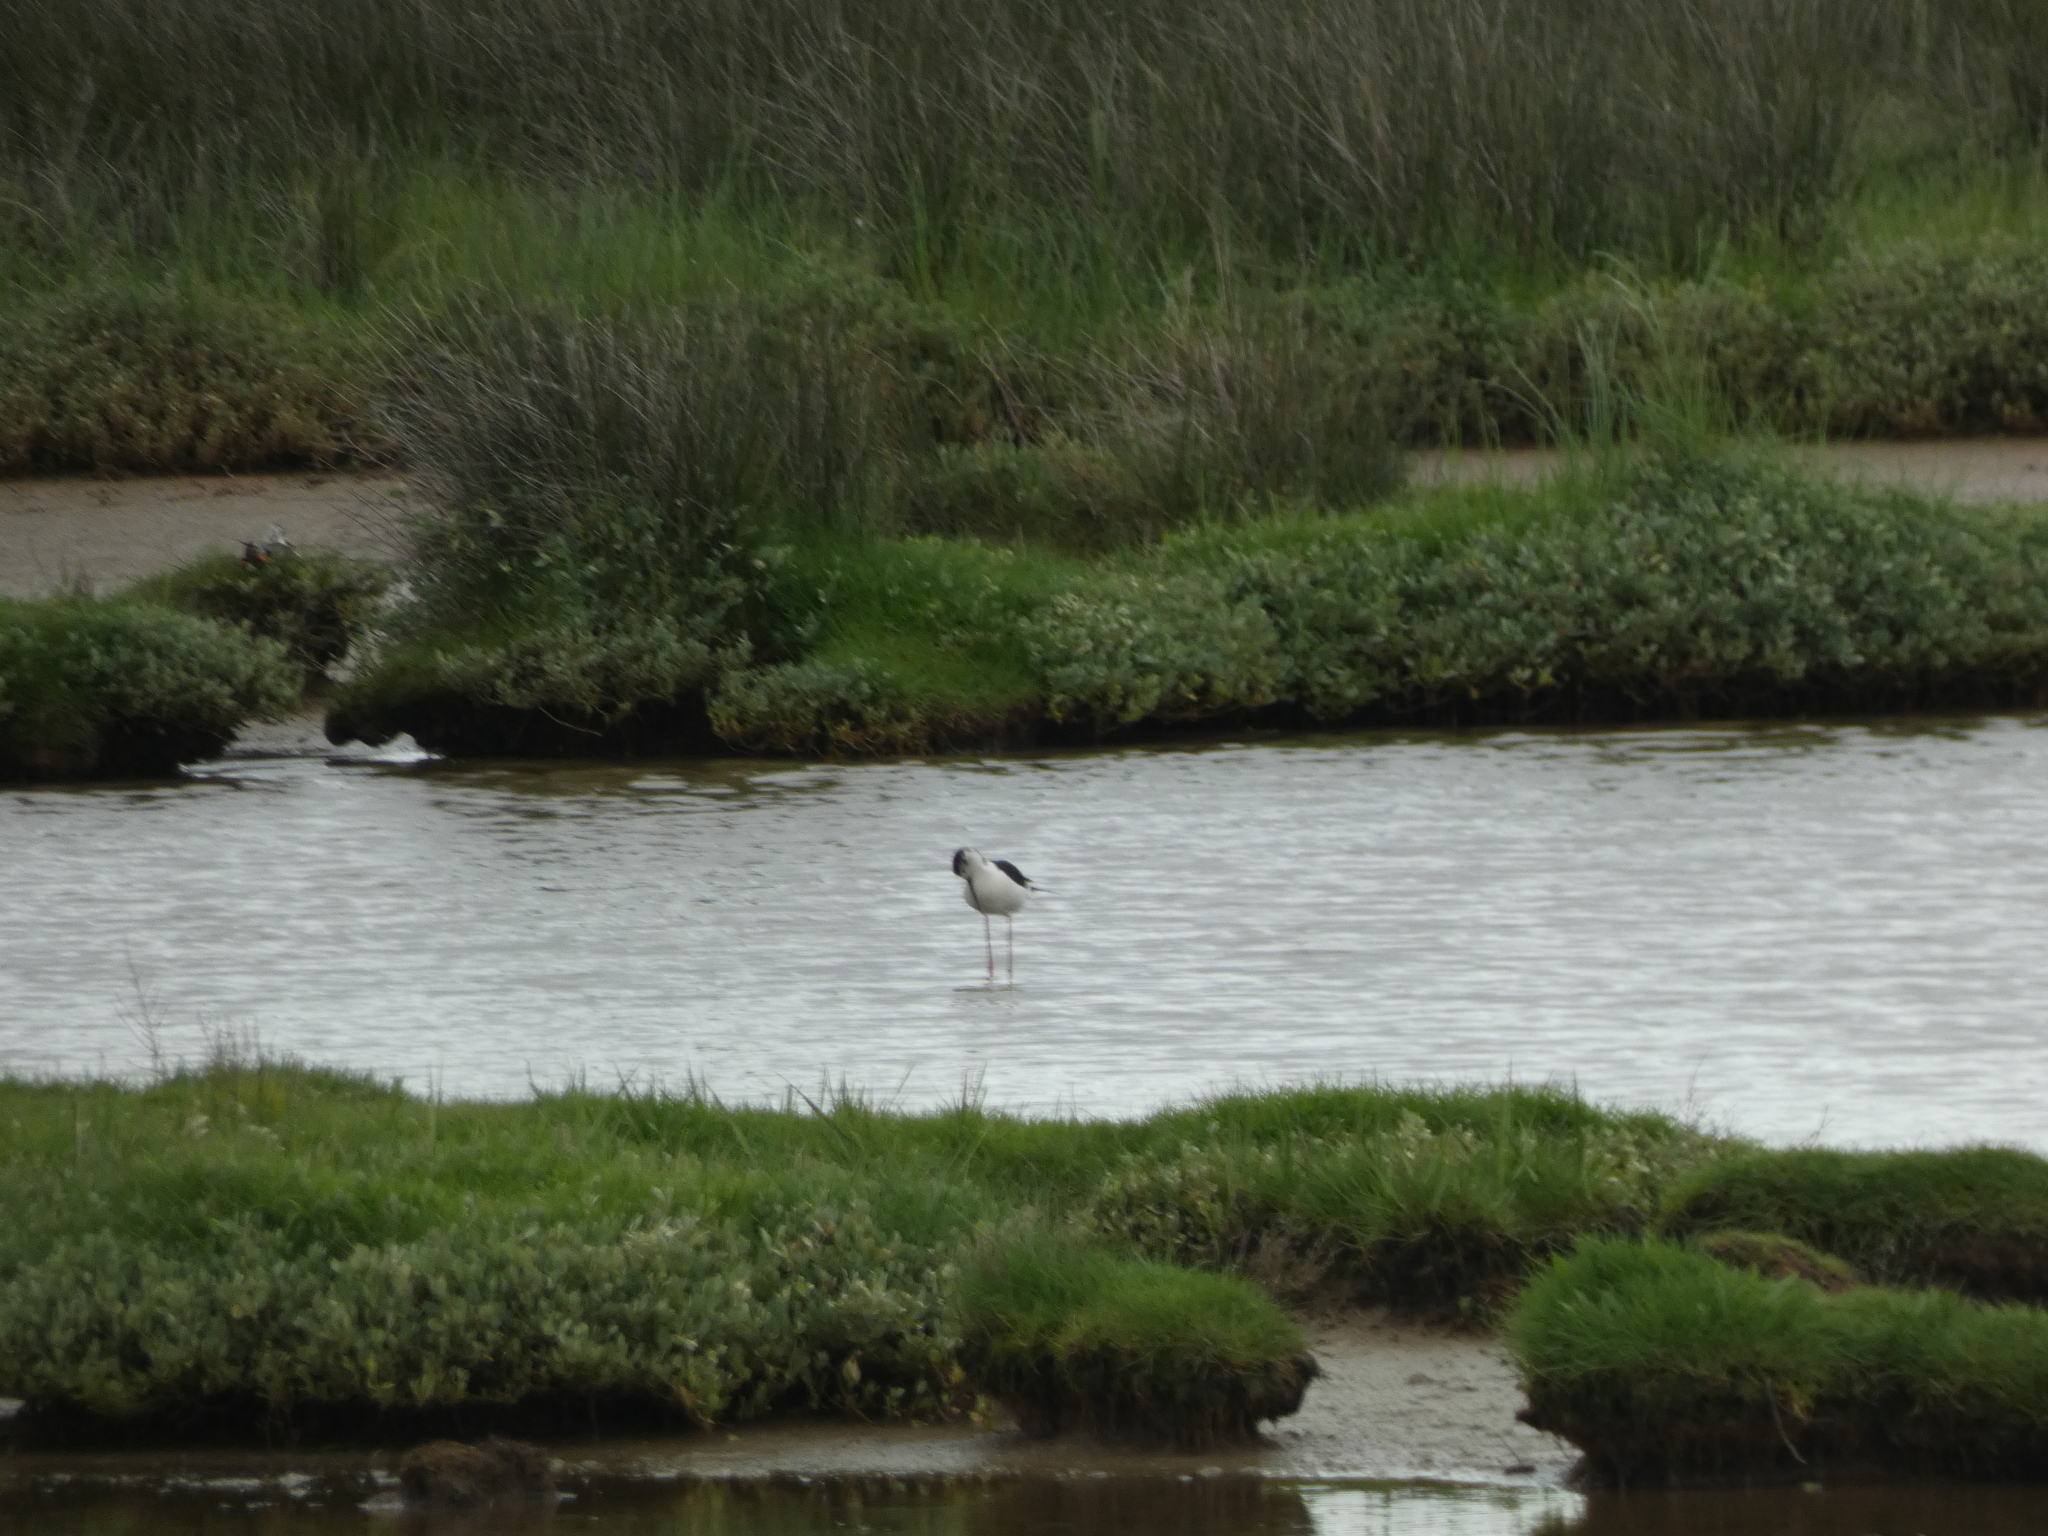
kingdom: Animalia
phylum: Chordata
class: Aves
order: Charadriiformes
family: Recurvirostridae
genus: Himantopus
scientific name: Himantopus himantopus
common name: Black-winged stilt
